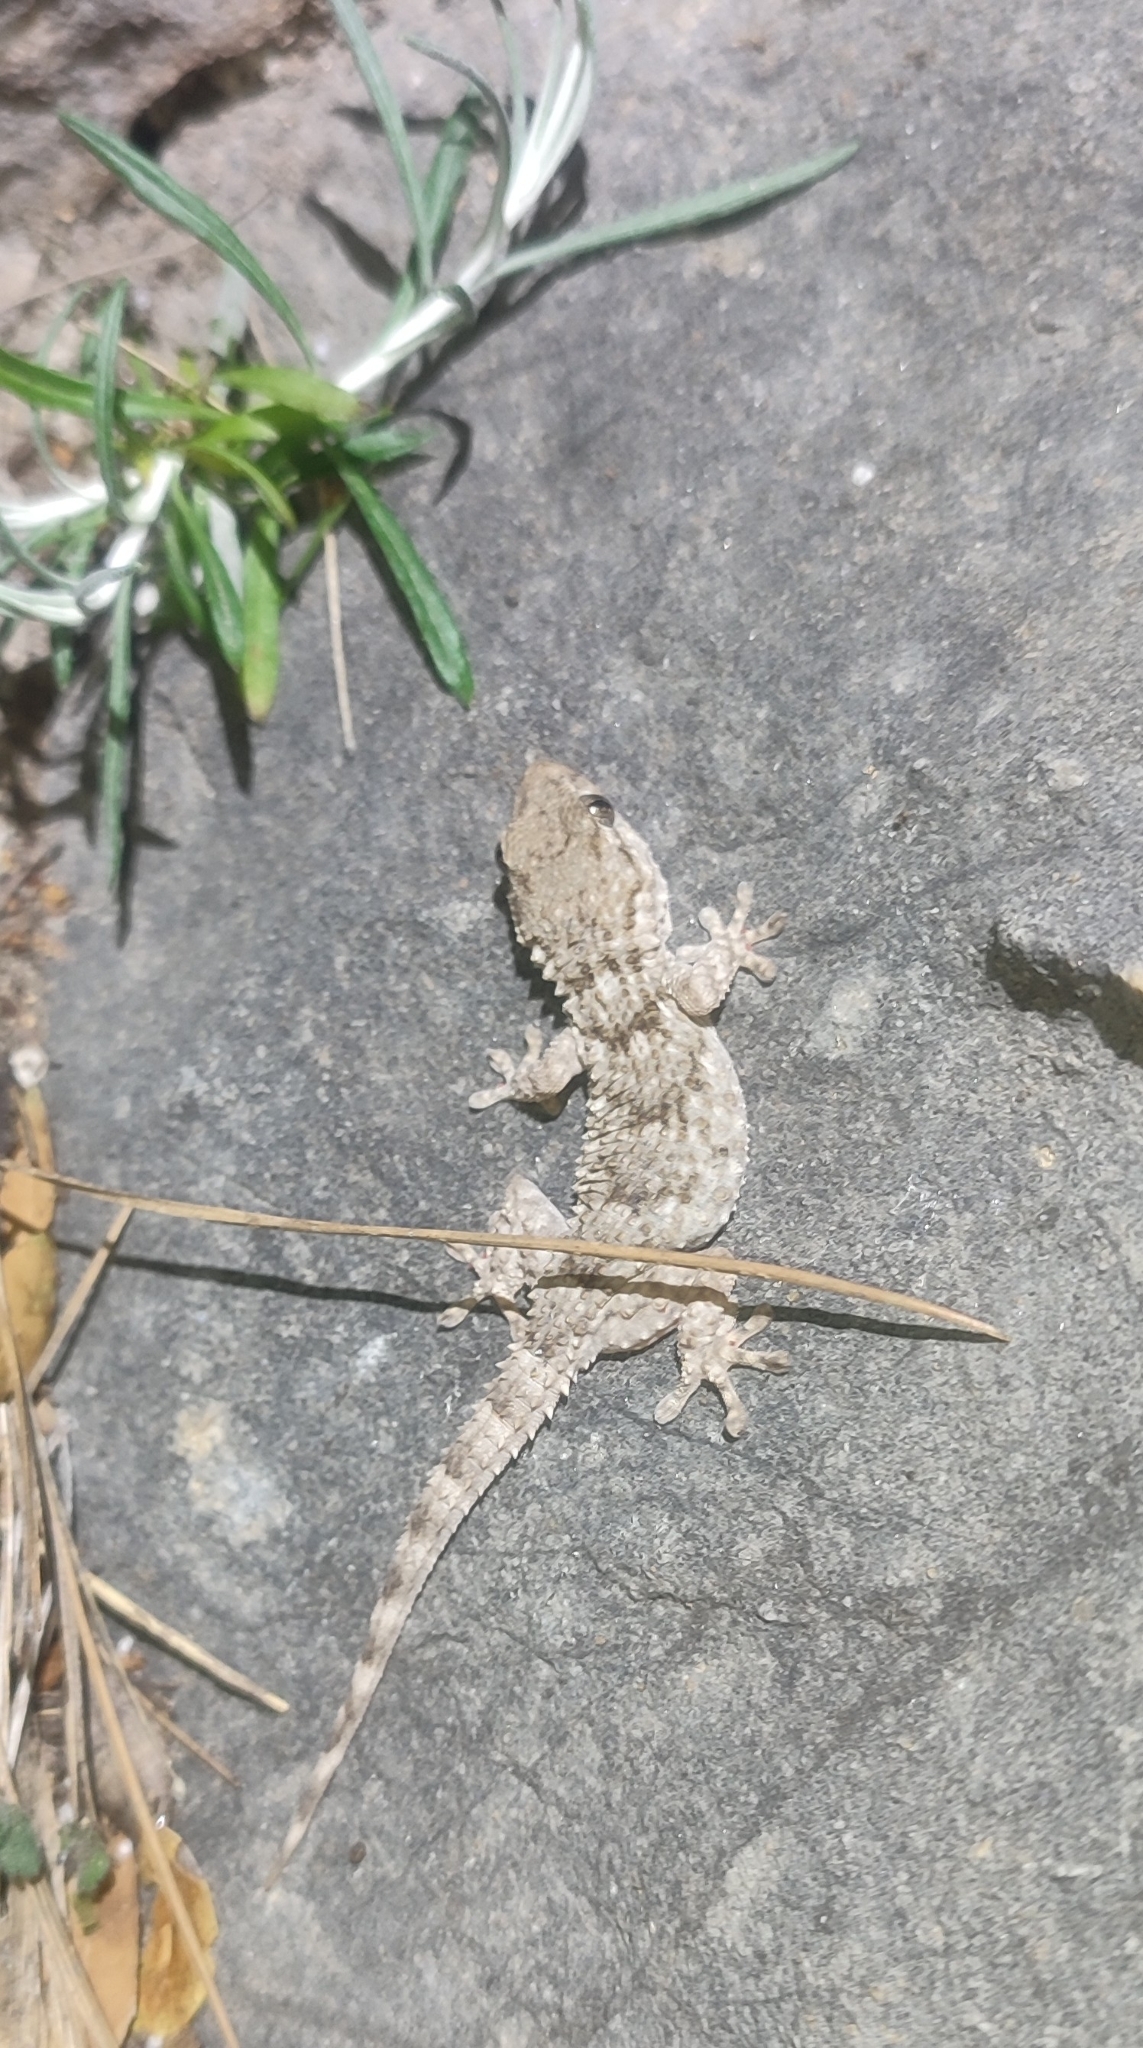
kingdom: Animalia
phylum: Chordata
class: Squamata
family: Phyllodactylidae
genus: Tarentola
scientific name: Tarentola mauritanica
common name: Moorish gecko
